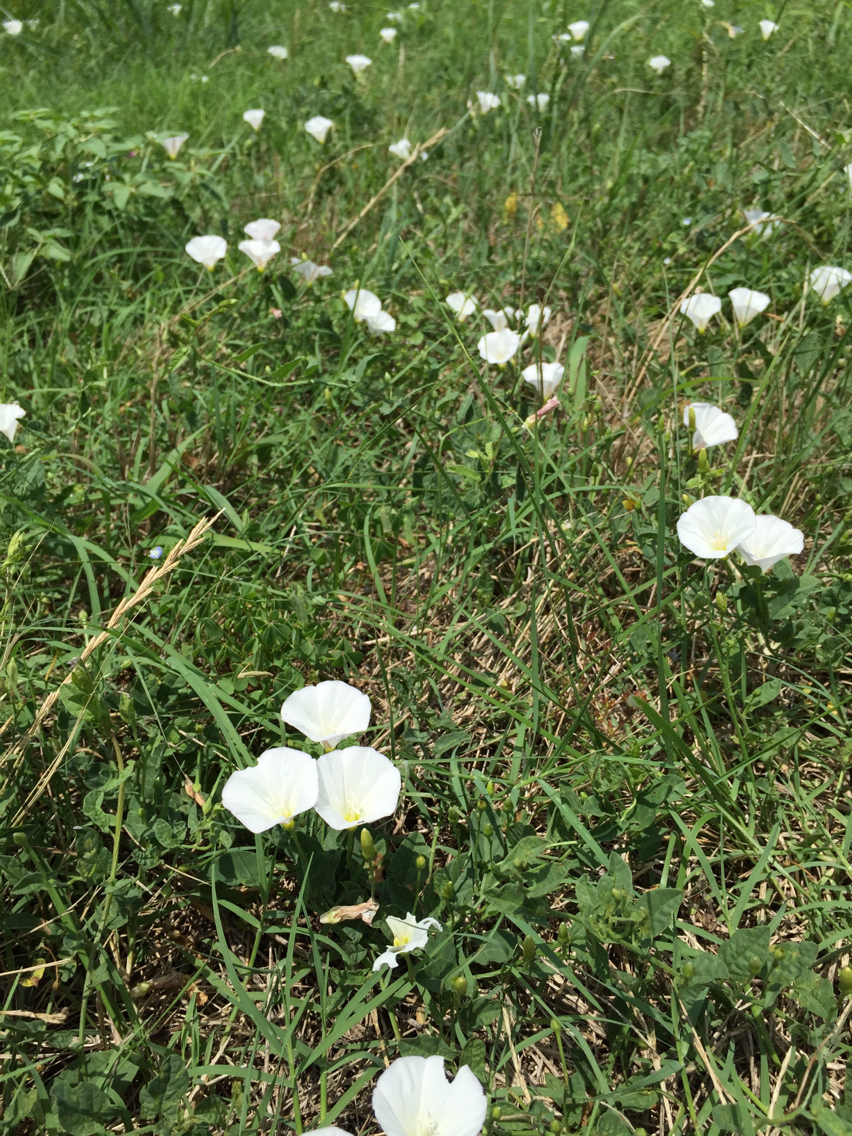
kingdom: Plantae
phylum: Tracheophyta
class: Magnoliopsida
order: Solanales
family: Convolvulaceae
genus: Convolvulus
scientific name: Convolvulus arvensis
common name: Field bindweed
